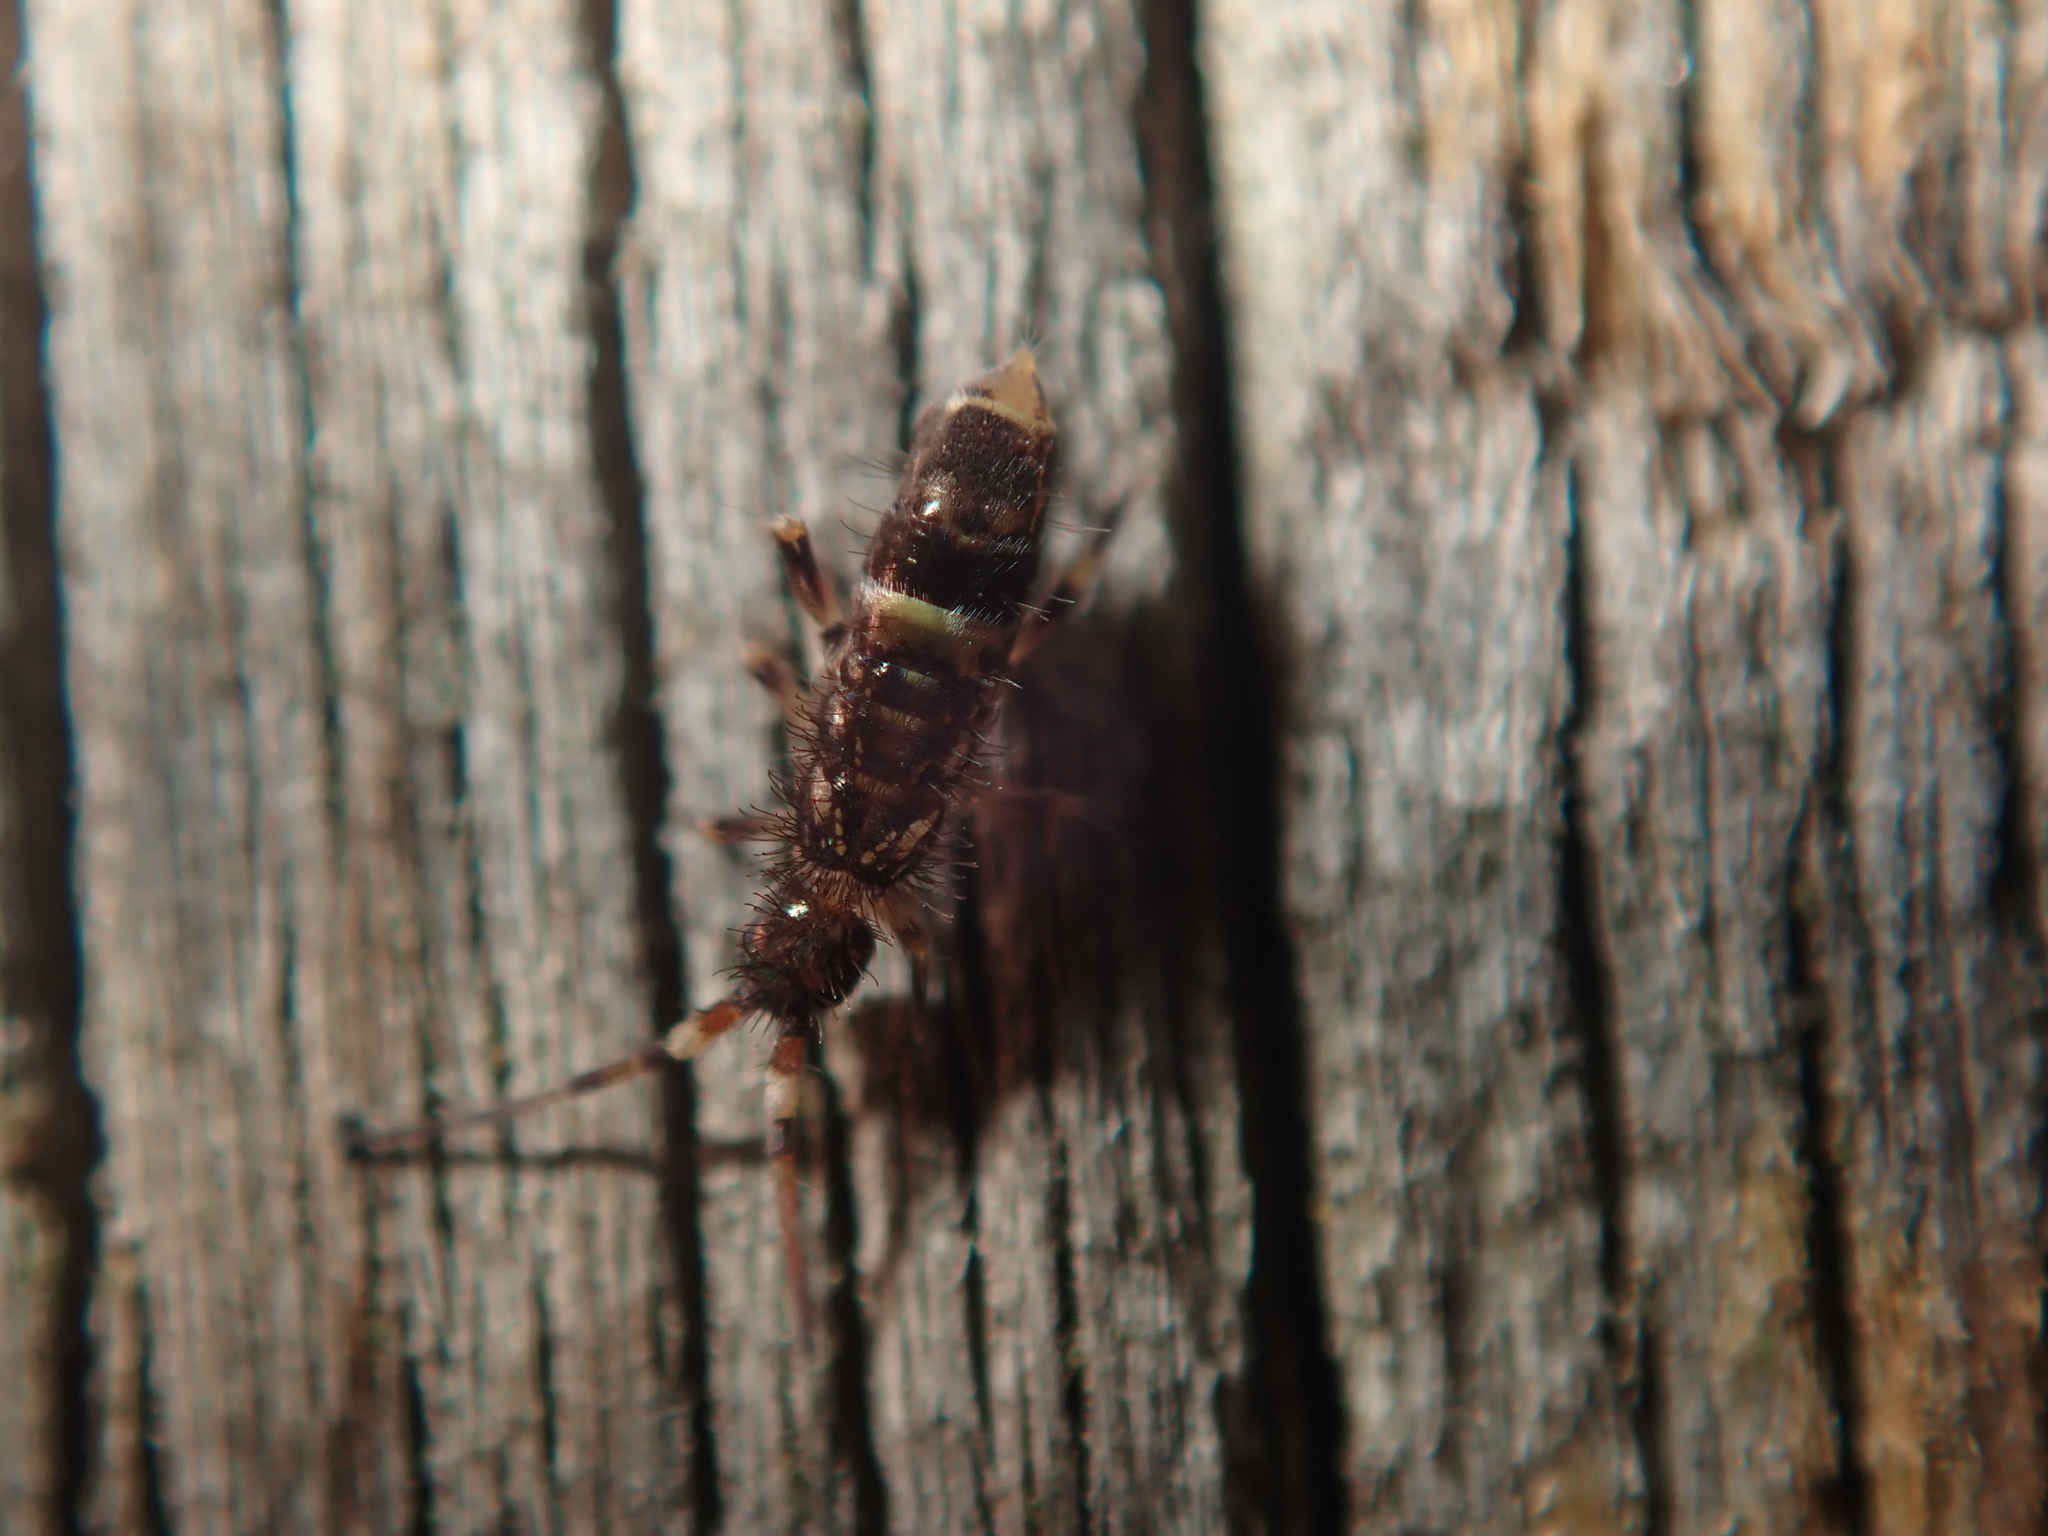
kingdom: Animalia
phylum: Arthropoda
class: Collembola
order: Entomobryomorpha
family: Orchesellidae
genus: Orchesella
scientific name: Orchesella cincta
